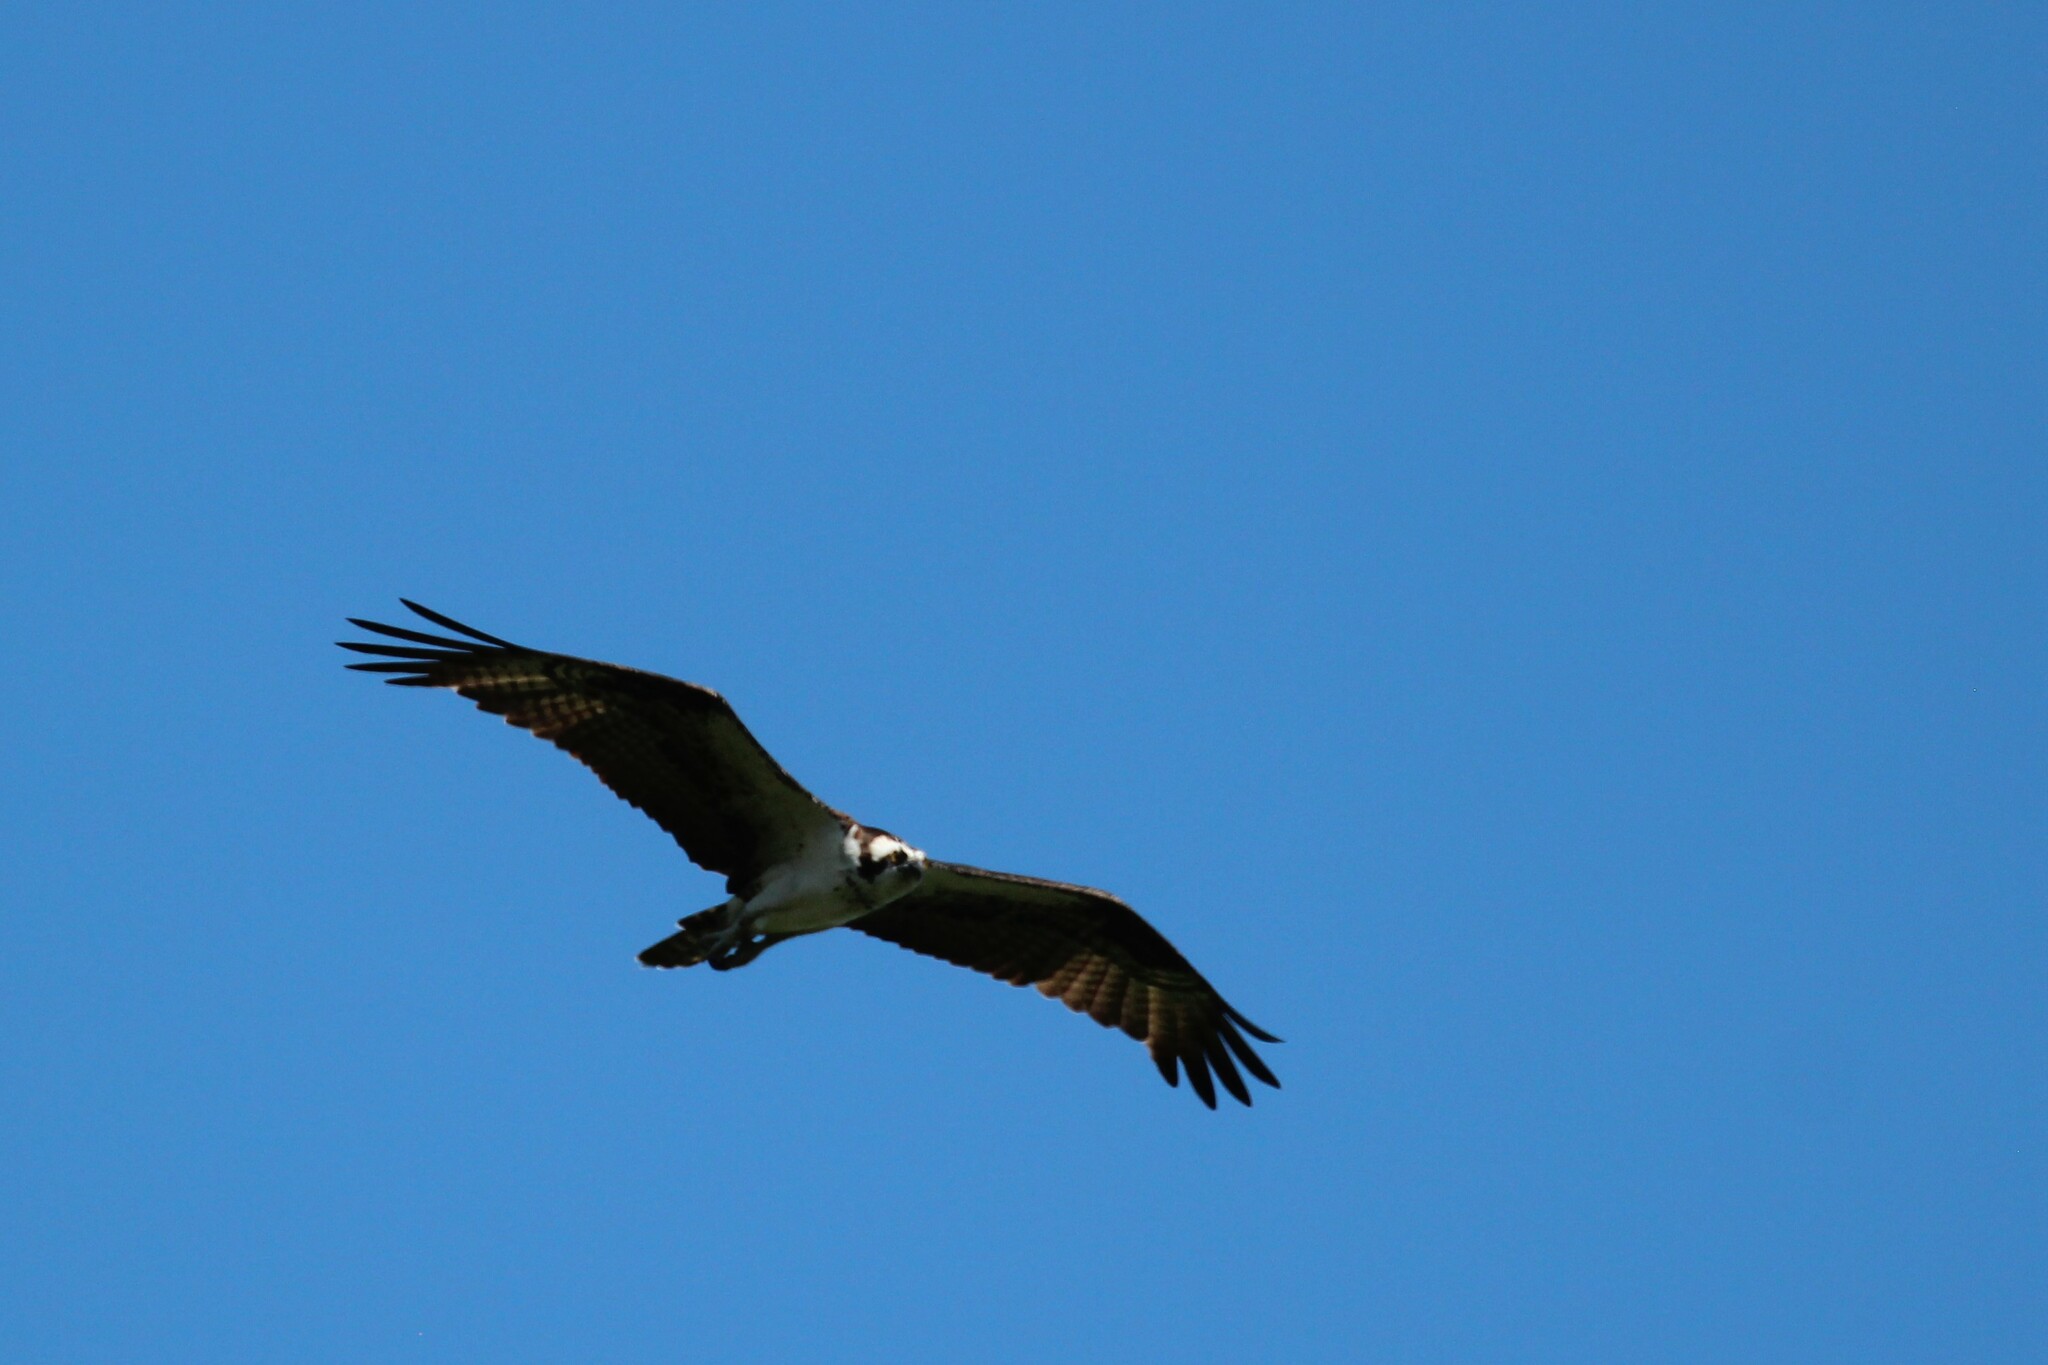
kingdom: Animalia
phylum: Chordata
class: Aves
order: Accipitriformes
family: Pandionidae
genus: Pandion
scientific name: Pandion haliaetus
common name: Osprey
